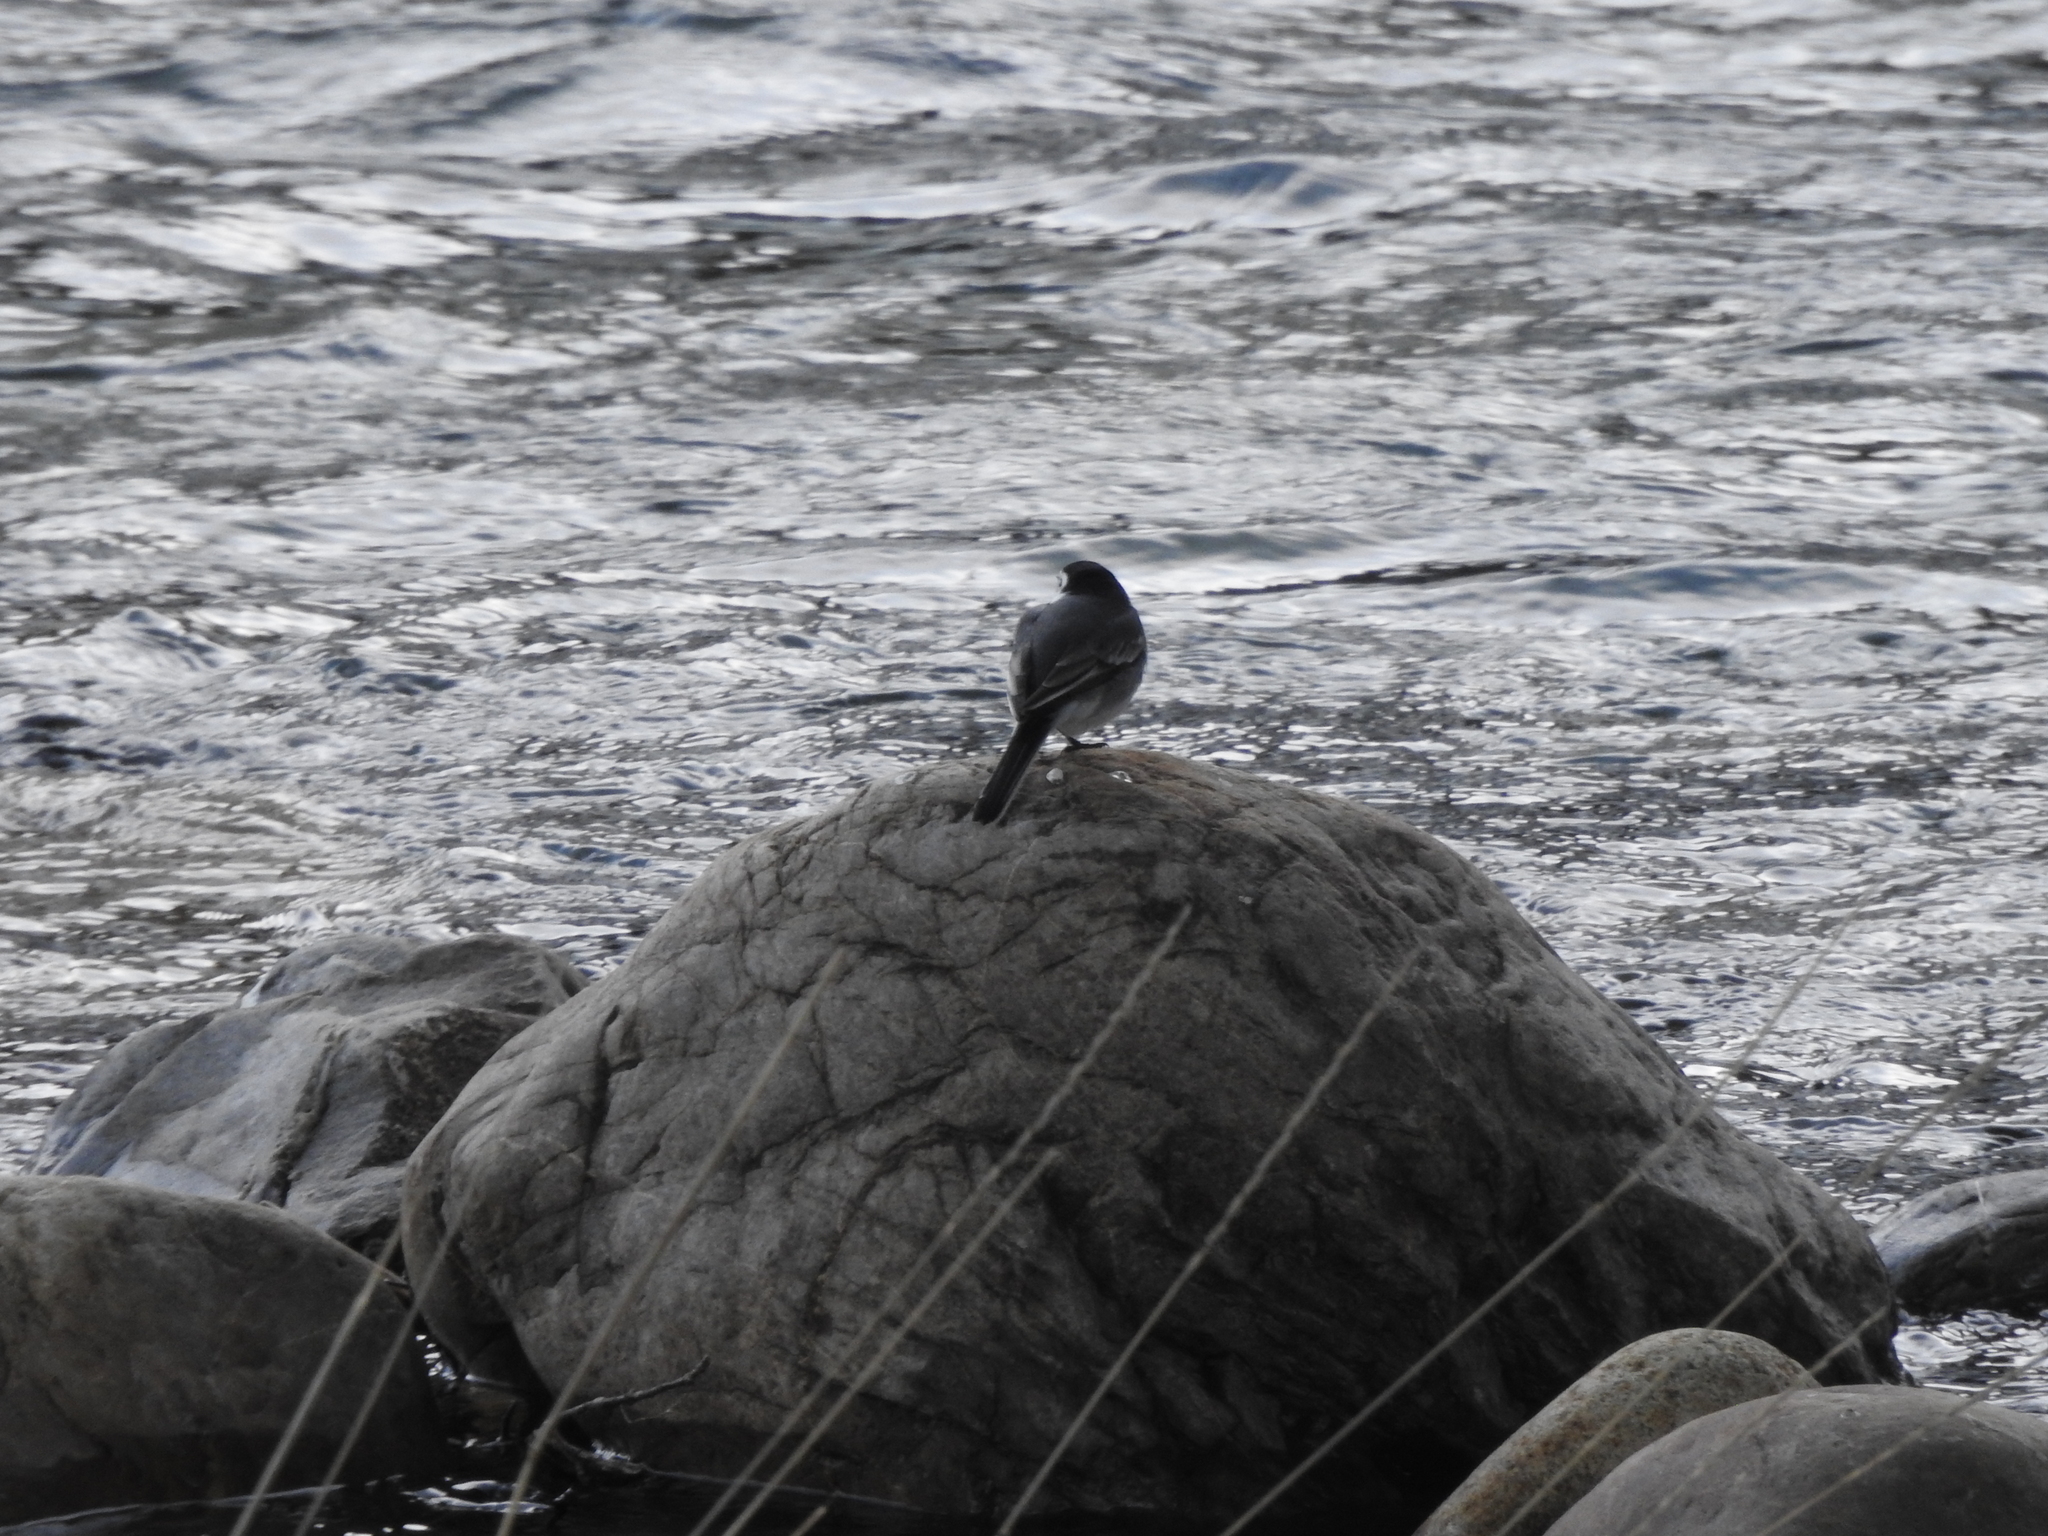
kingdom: Animalia
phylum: Chordata
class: Aves
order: Passeriformes
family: Motacillidae
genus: Motacilla
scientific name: Motacilla alba
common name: White wagtail
